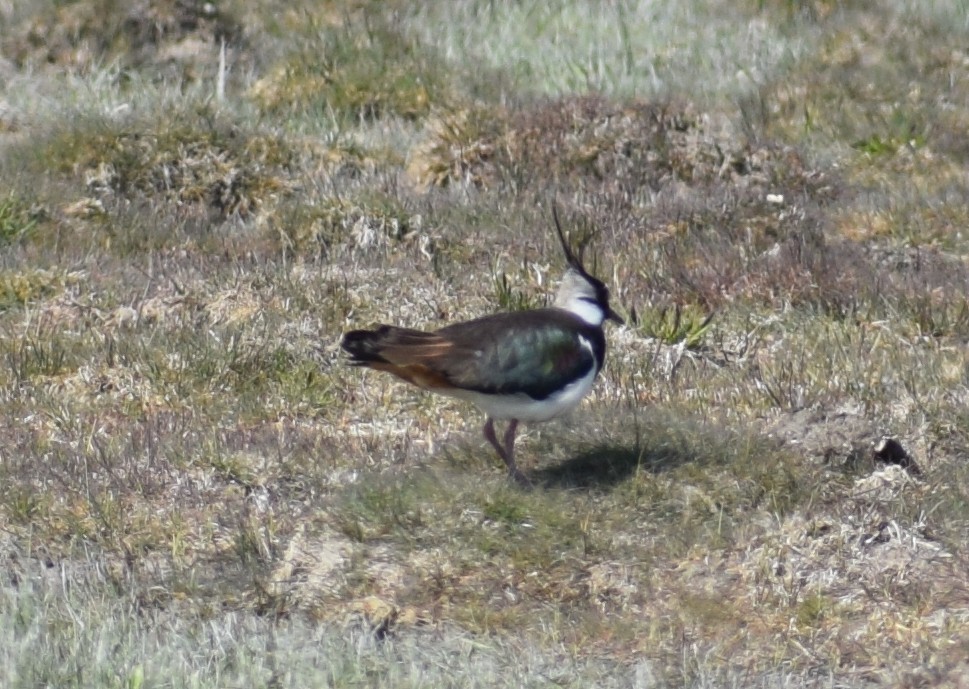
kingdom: Animalia
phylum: Chordata
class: Aves
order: Charadriiformes
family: Charadriidae
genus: Vanellus
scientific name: Vanellus vanellus
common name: Northern lapwing
